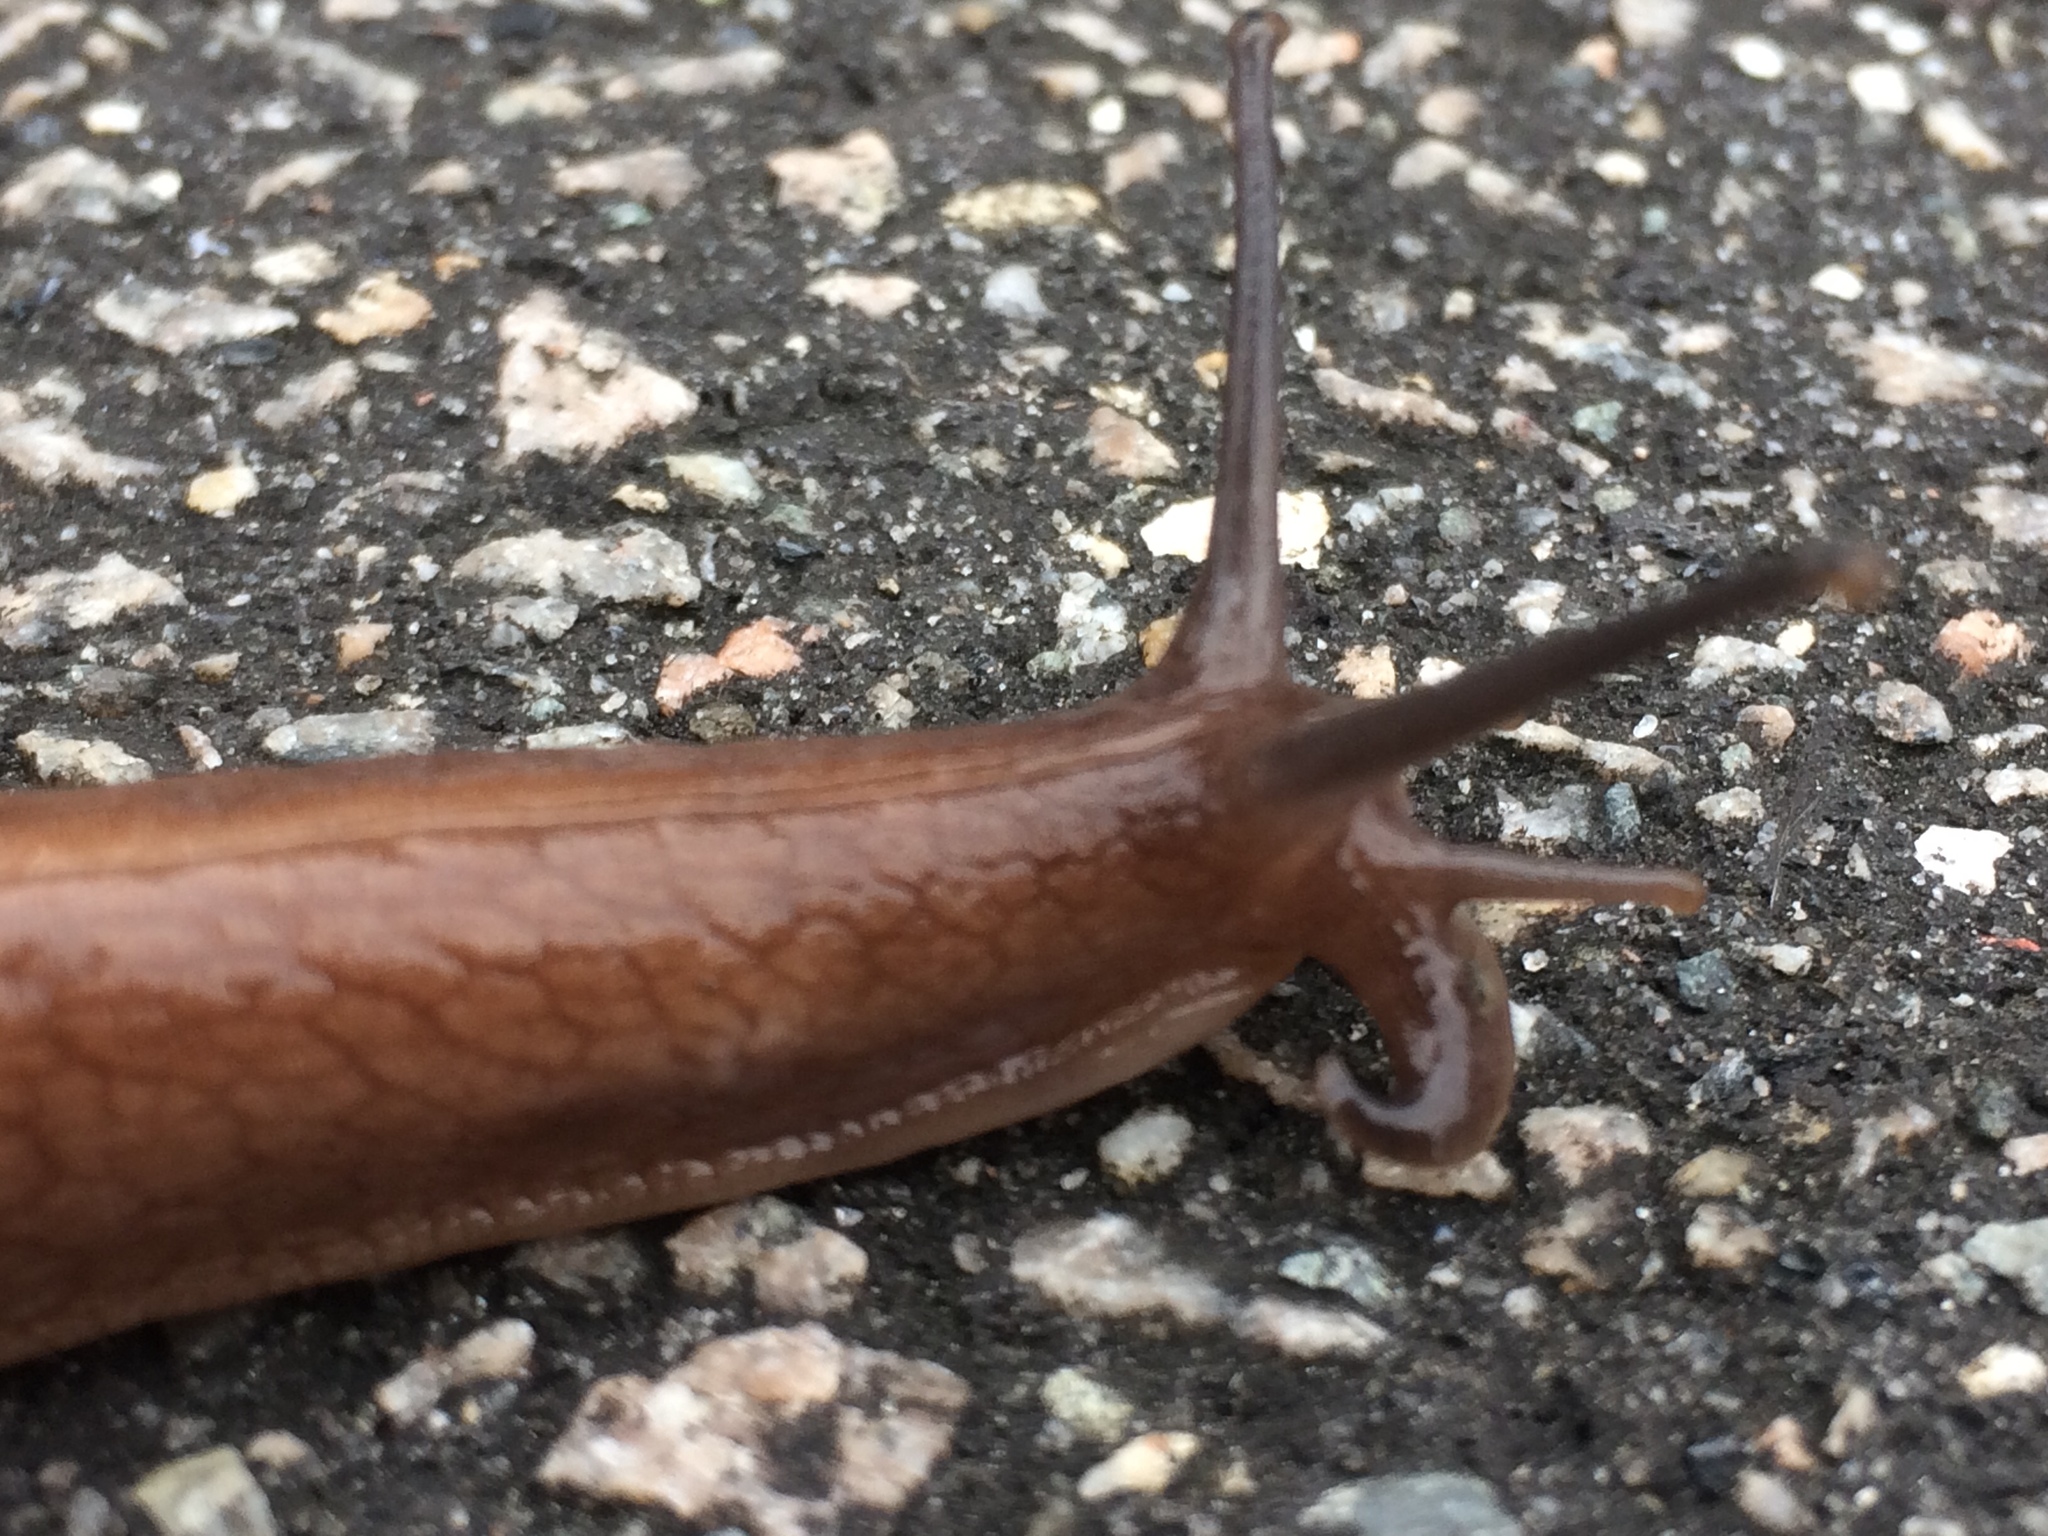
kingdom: Animalia
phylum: Mollusca
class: Gastropoda
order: Stylommatophora
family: Spiraxidae
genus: Euglandina
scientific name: Euglandina rosea
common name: Rosy wolfsnail
